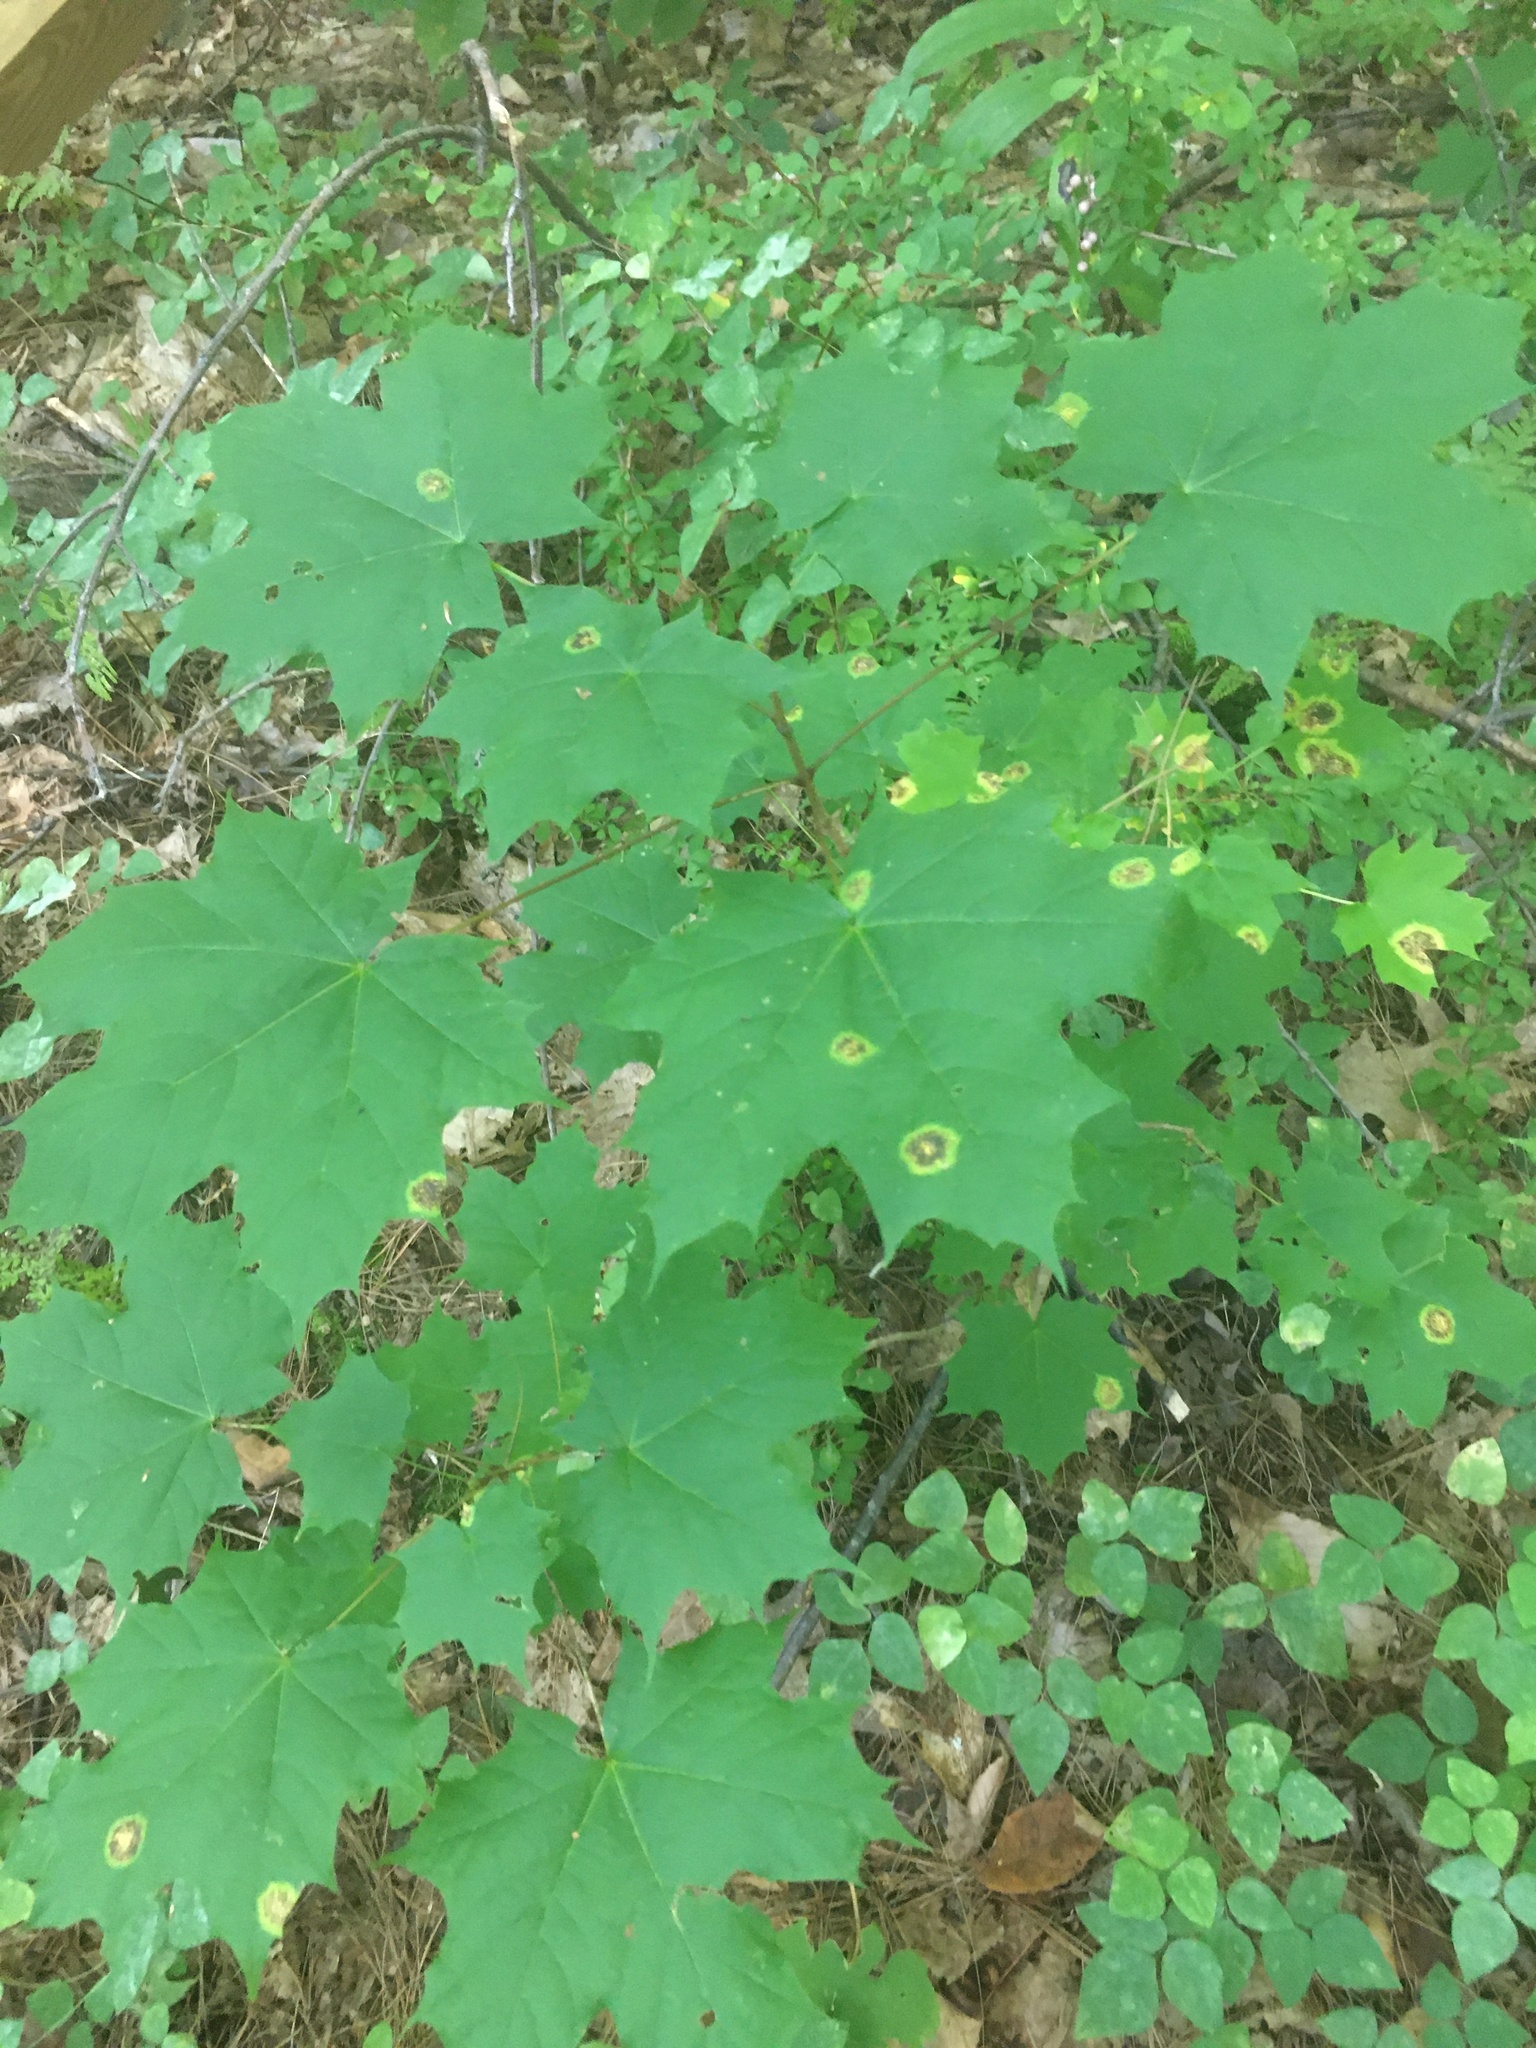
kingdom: Plantae
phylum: Tracheophyta
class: Magnoliopsida
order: Sapindales
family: Sapindaceae
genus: Acer
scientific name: Acer platanoides
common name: Norway maple
